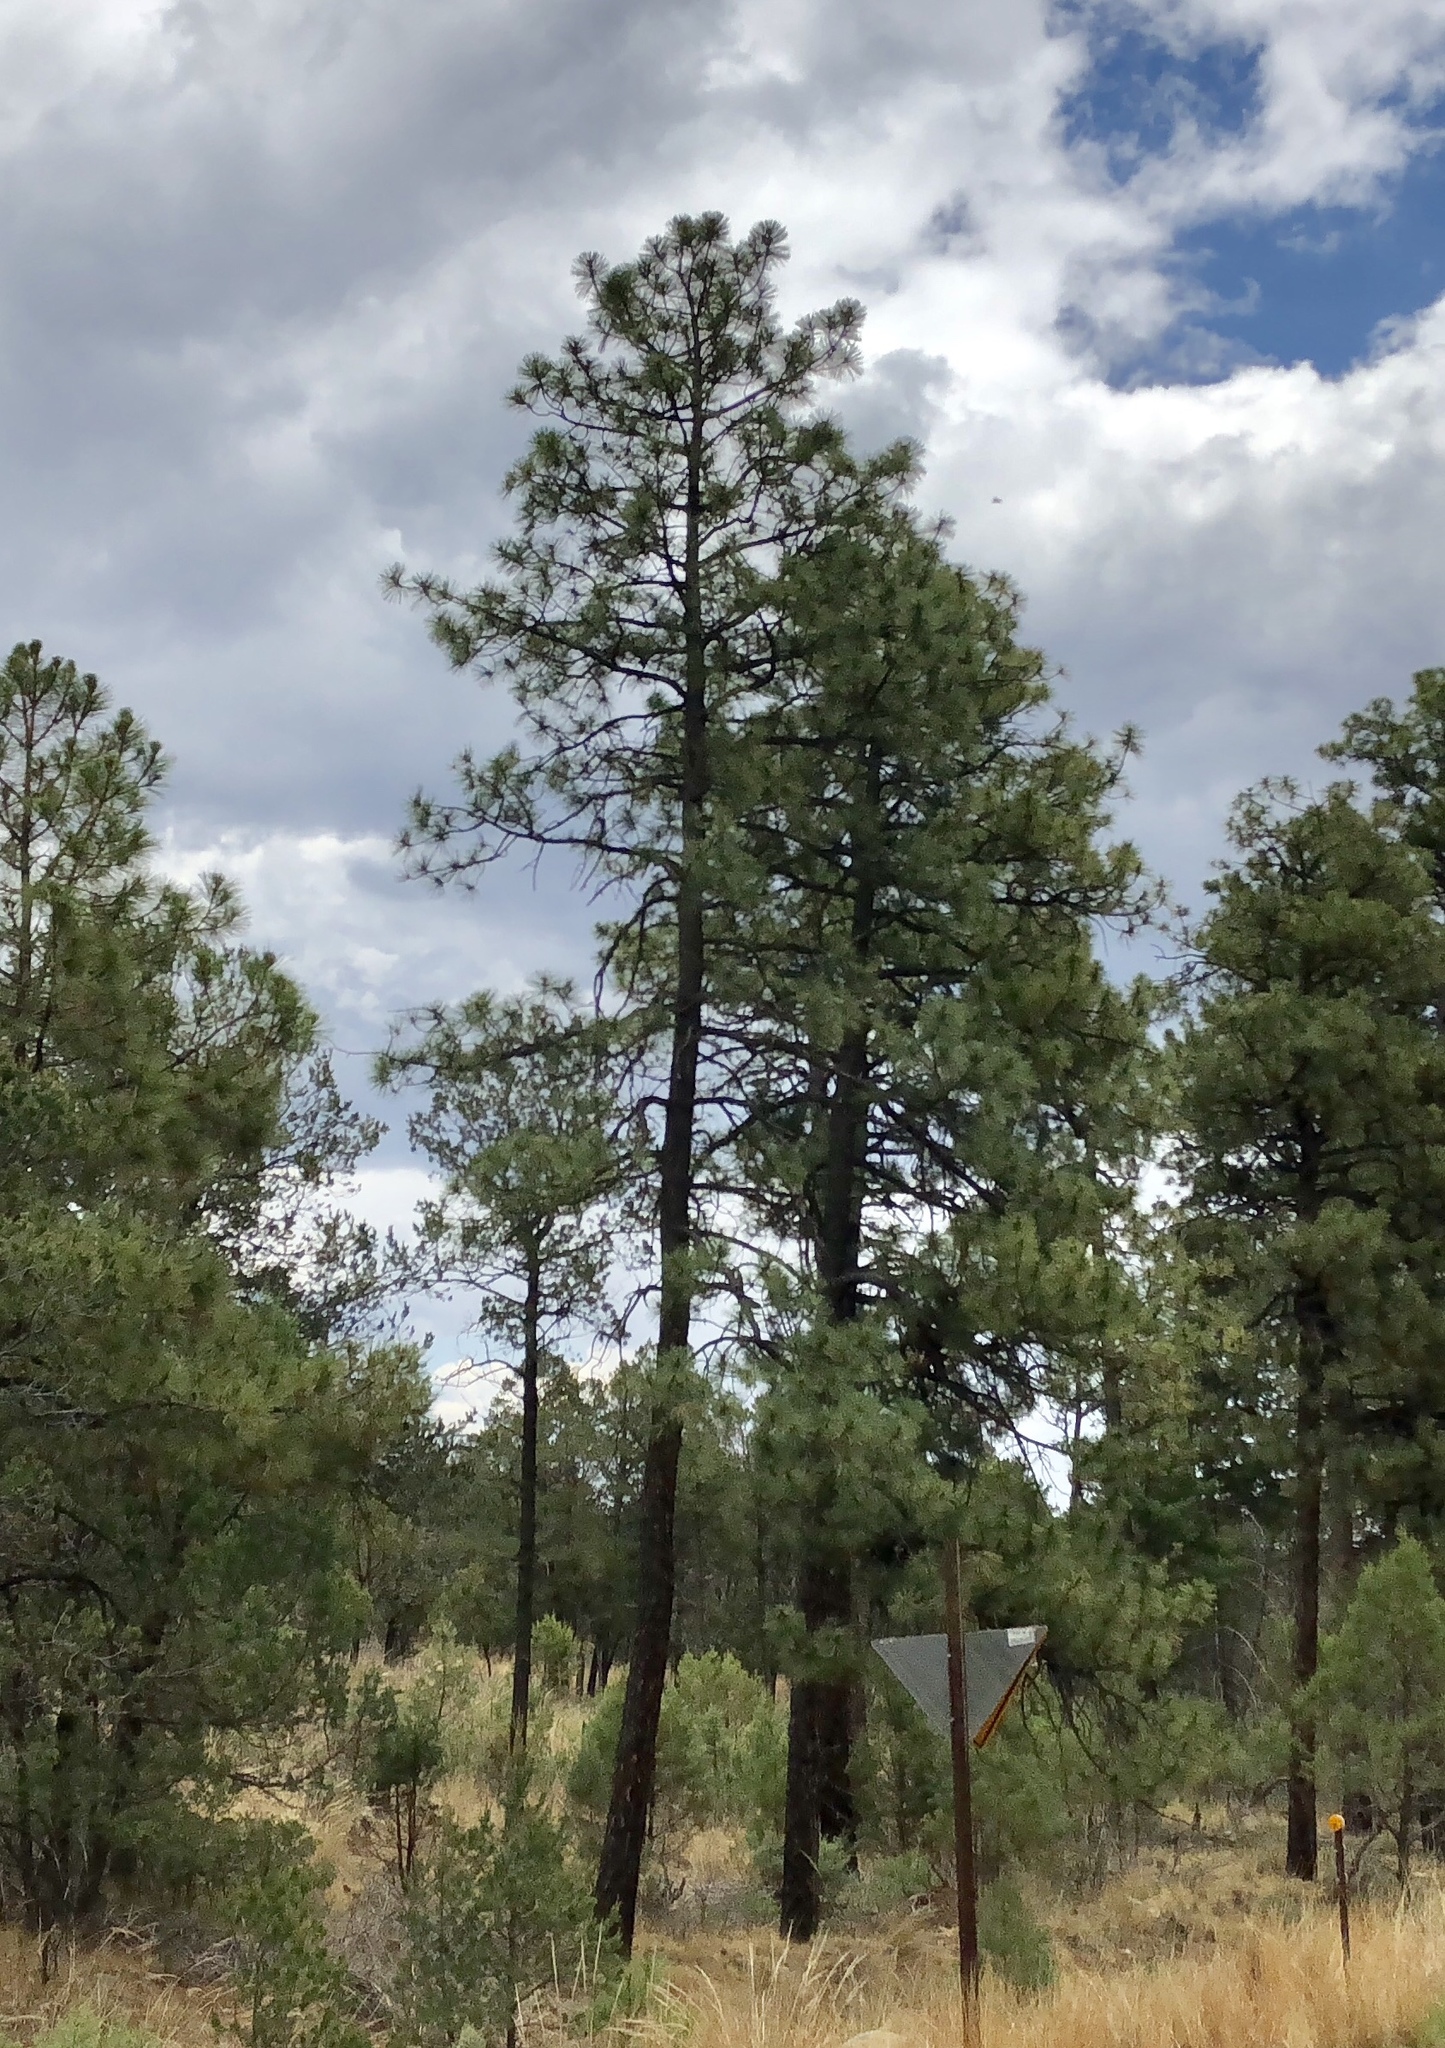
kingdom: Plantae
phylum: Tracheophyta
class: Pinopsida
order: Pinales
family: Pinaceae
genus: Pinus
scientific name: Pinus ponderosa
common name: Western yellow-pine
